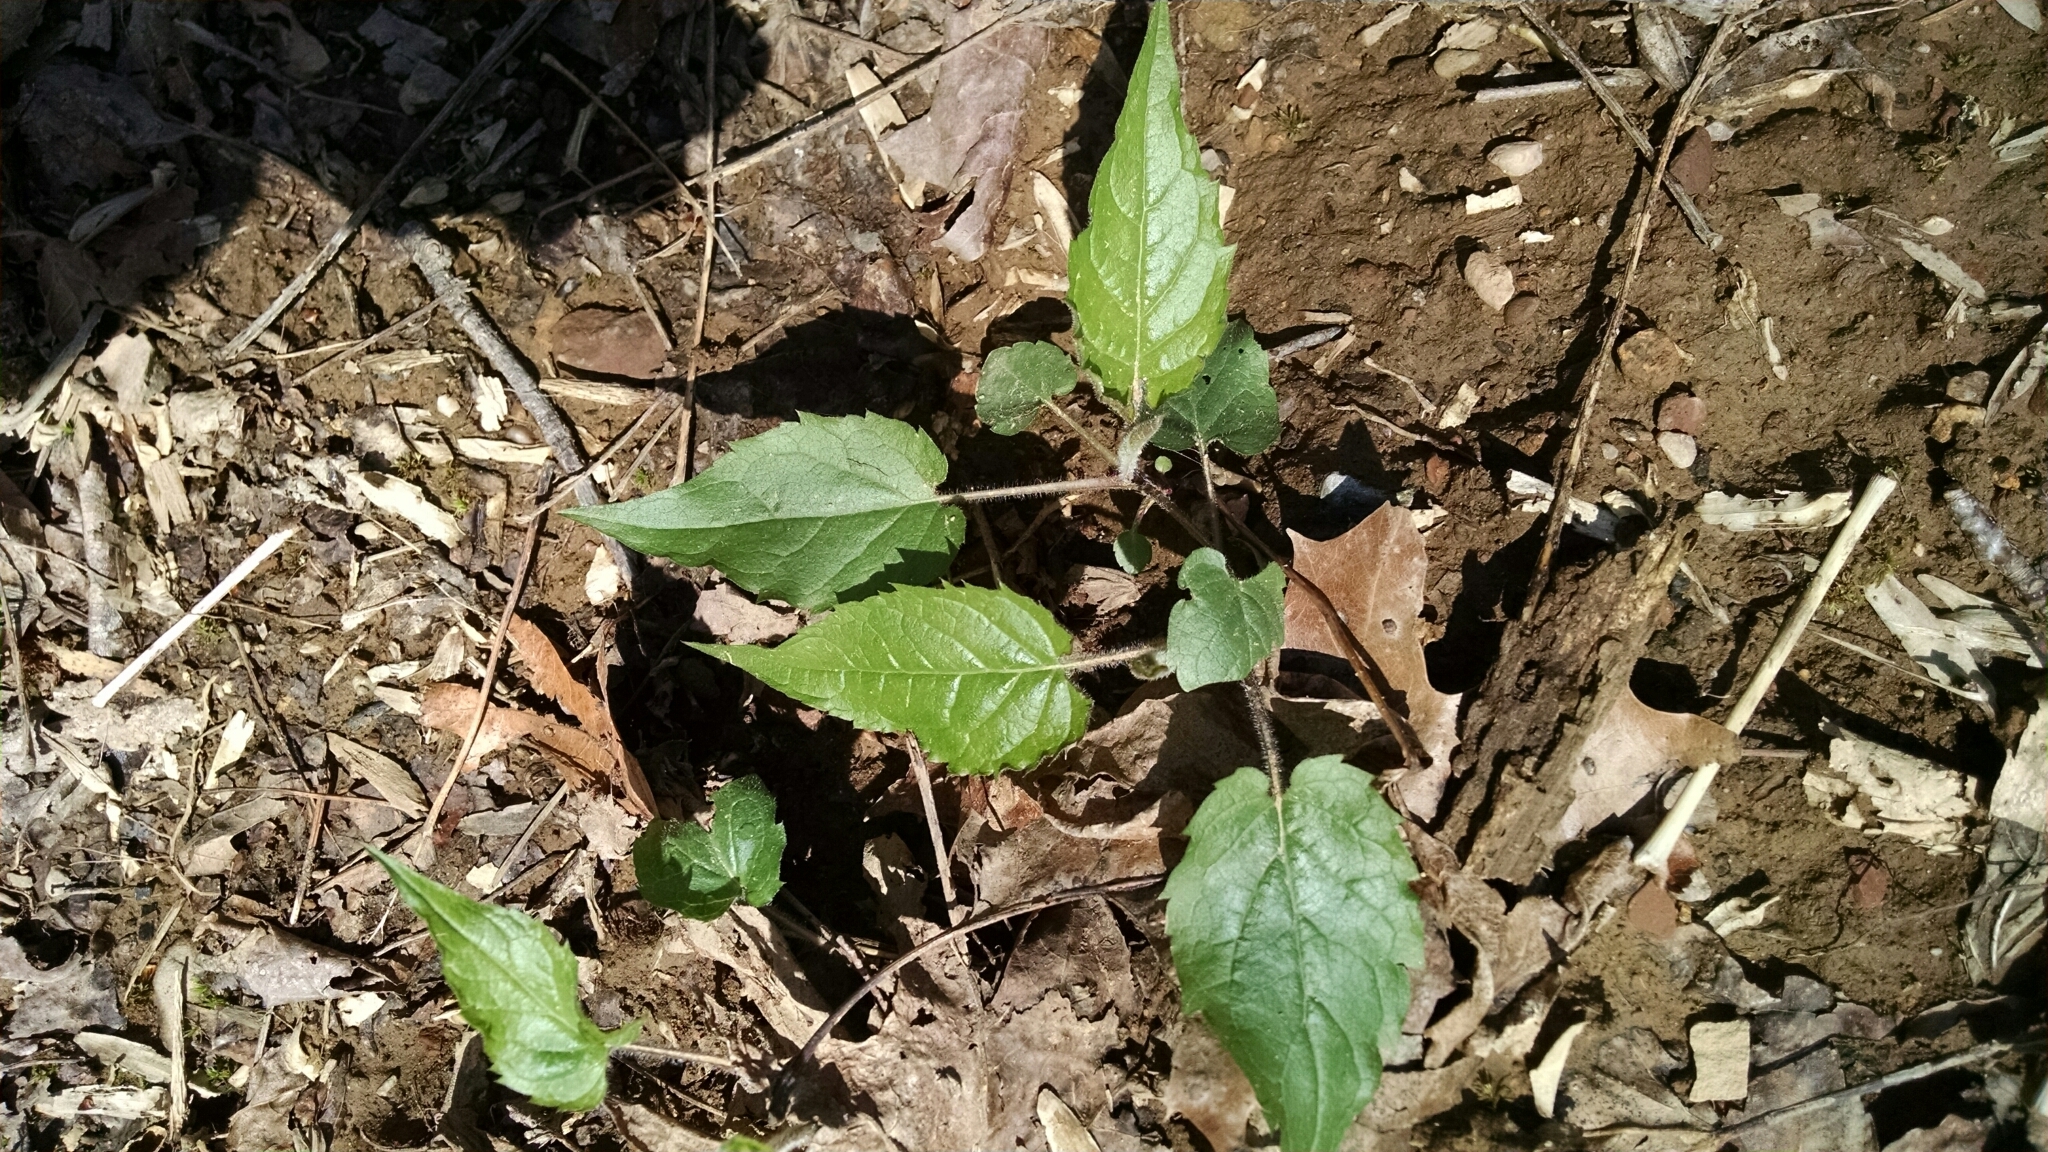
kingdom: Plantae
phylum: Tracheophyta
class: Magnoliopsida
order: Asterales
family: Asteraceae
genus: Eurybia
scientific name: Eurybia divaricata
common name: White wood aster
